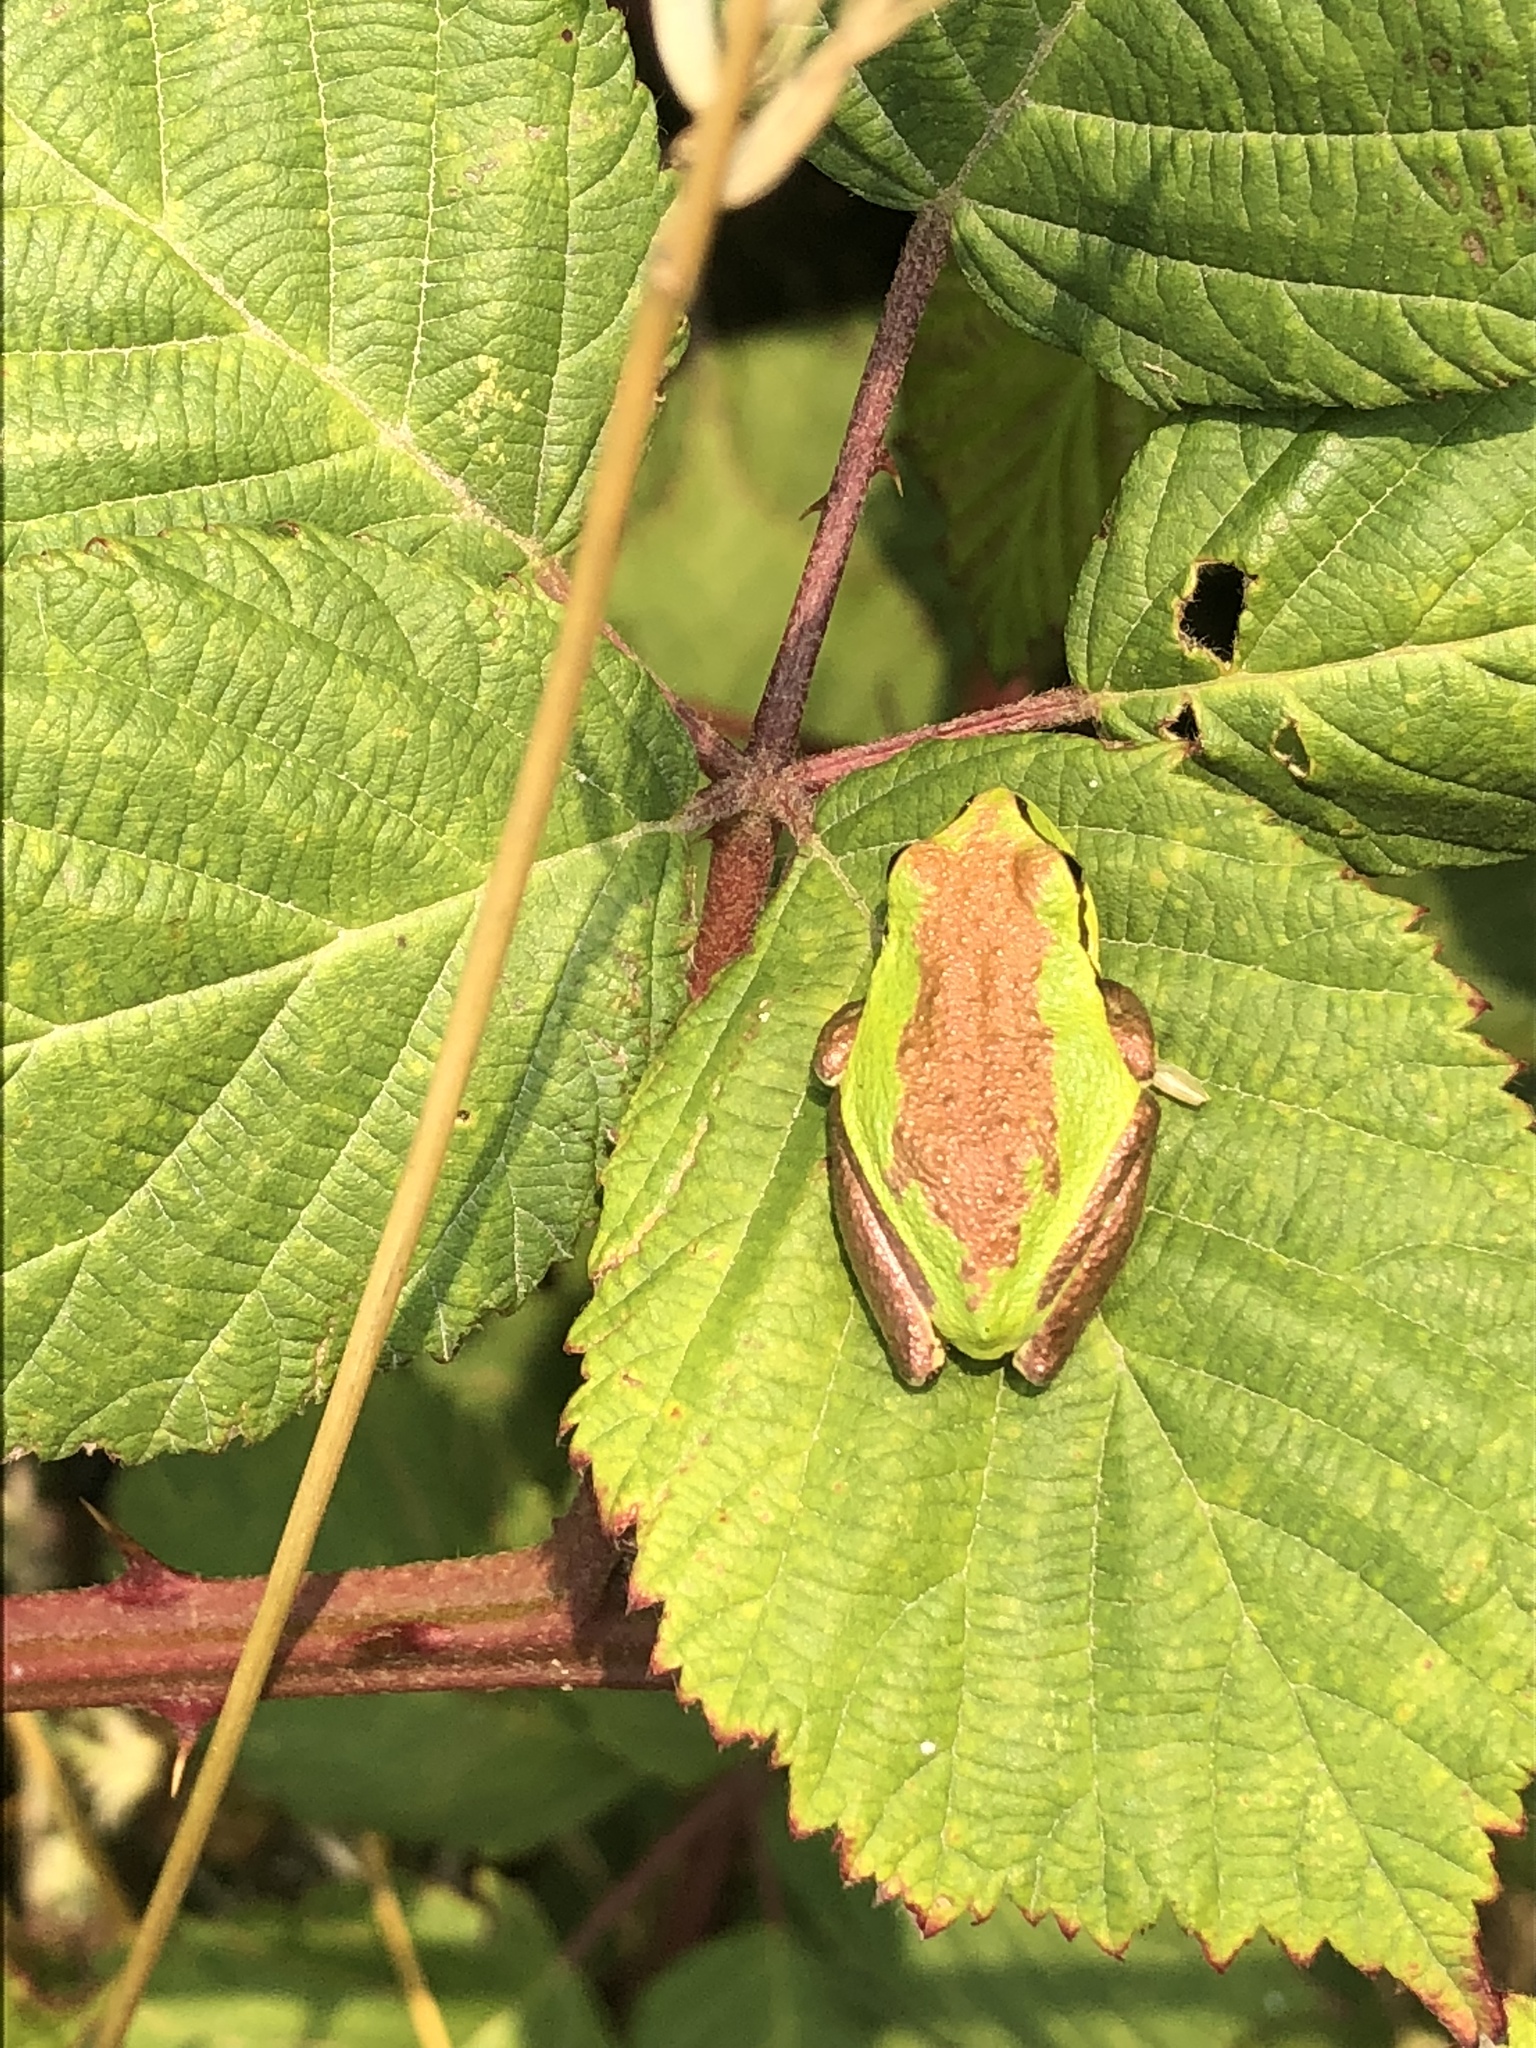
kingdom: Animalia
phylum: Chordata
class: Amphibia
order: Anura
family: Hylidae
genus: Pseudacris
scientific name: Pseudacris regilla
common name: Pacific chorus frog
